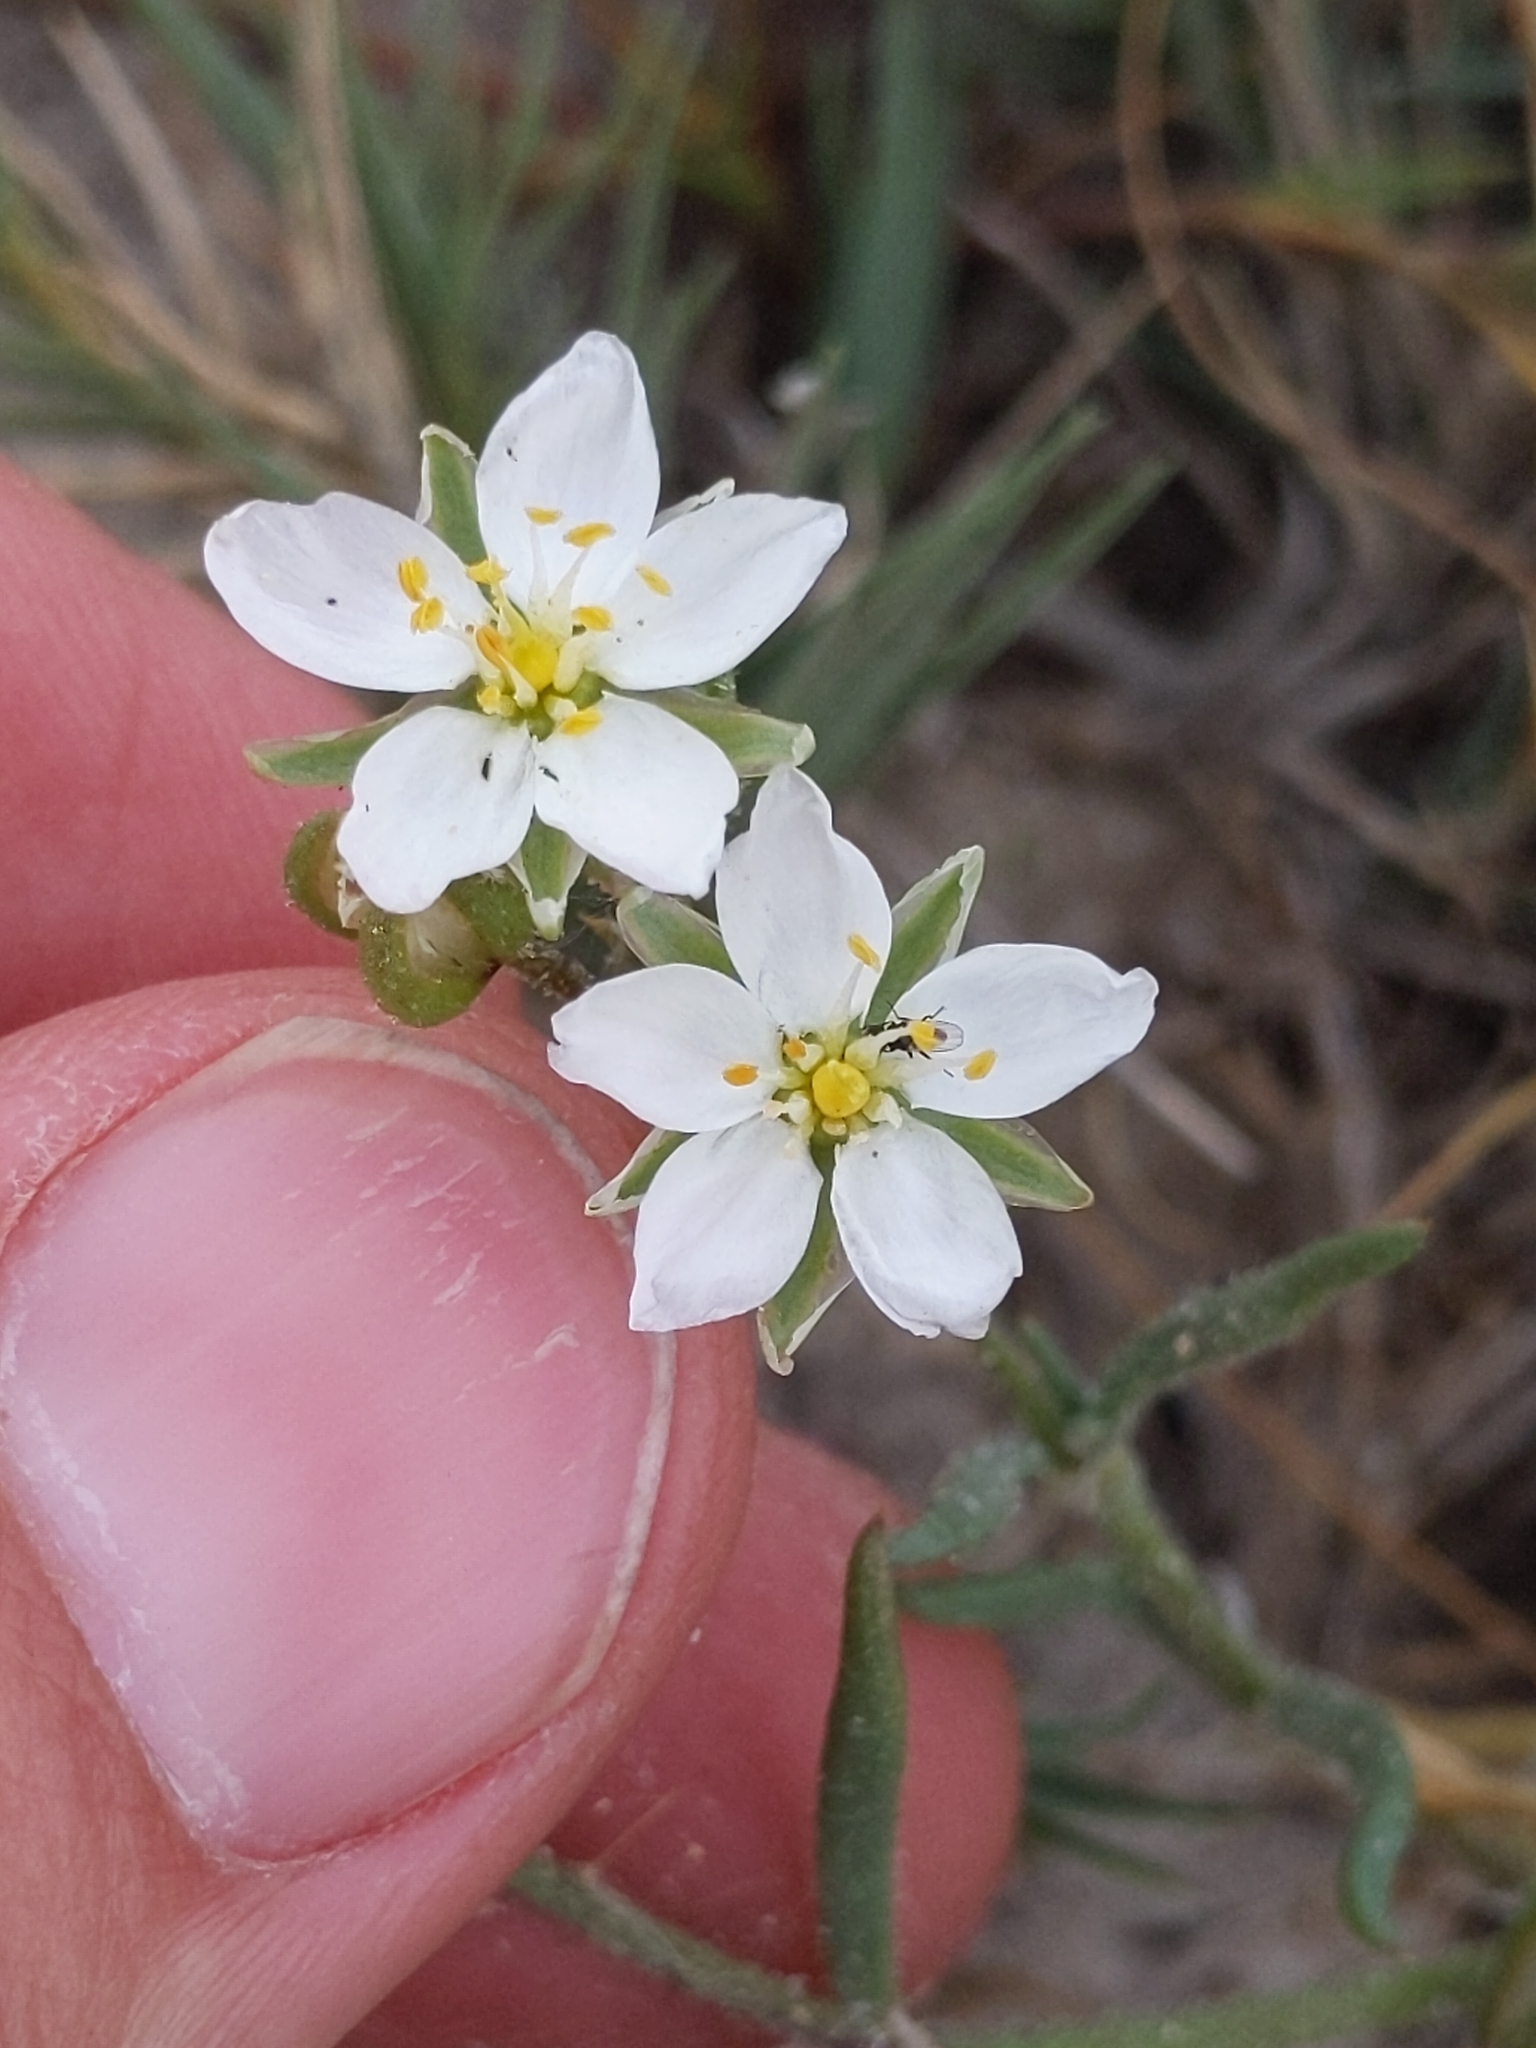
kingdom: Plantae
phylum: Tracheophyta
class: Magnoliopsida
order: Caryophyllales
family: Caryophyllaceae
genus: Spergularia
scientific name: Spergularia macrotheca
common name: Beach sand-spurrey
